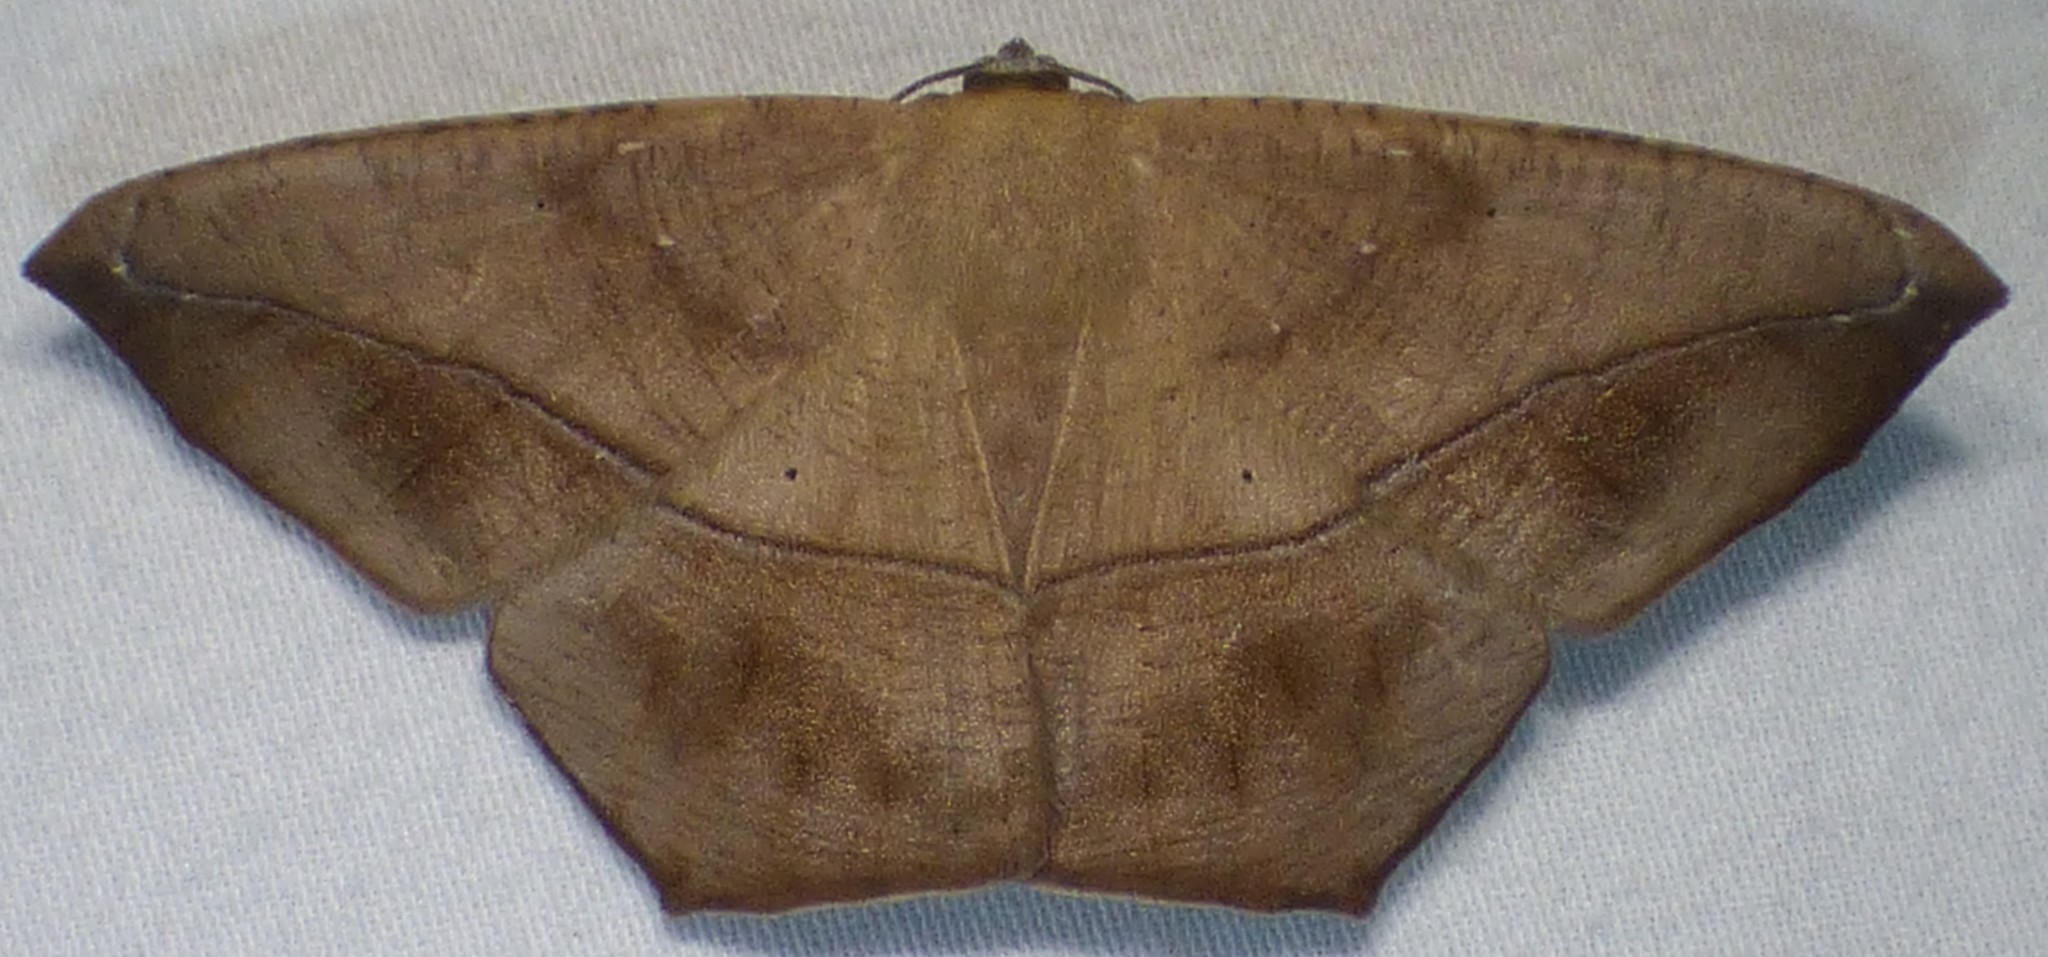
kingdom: Animalia
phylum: Arthropoda
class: Insecta
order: Lepidoptera
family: Geometridae
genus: Prochoerodes
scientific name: Prochoerodes lineola
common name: Large maple spanworm
